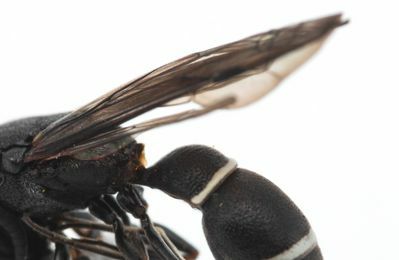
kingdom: Animalia
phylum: Arthropoda
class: Insecta
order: Hymenoptera
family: Eumenidae
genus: Microdynerus
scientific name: Microdynerus abdelkader
